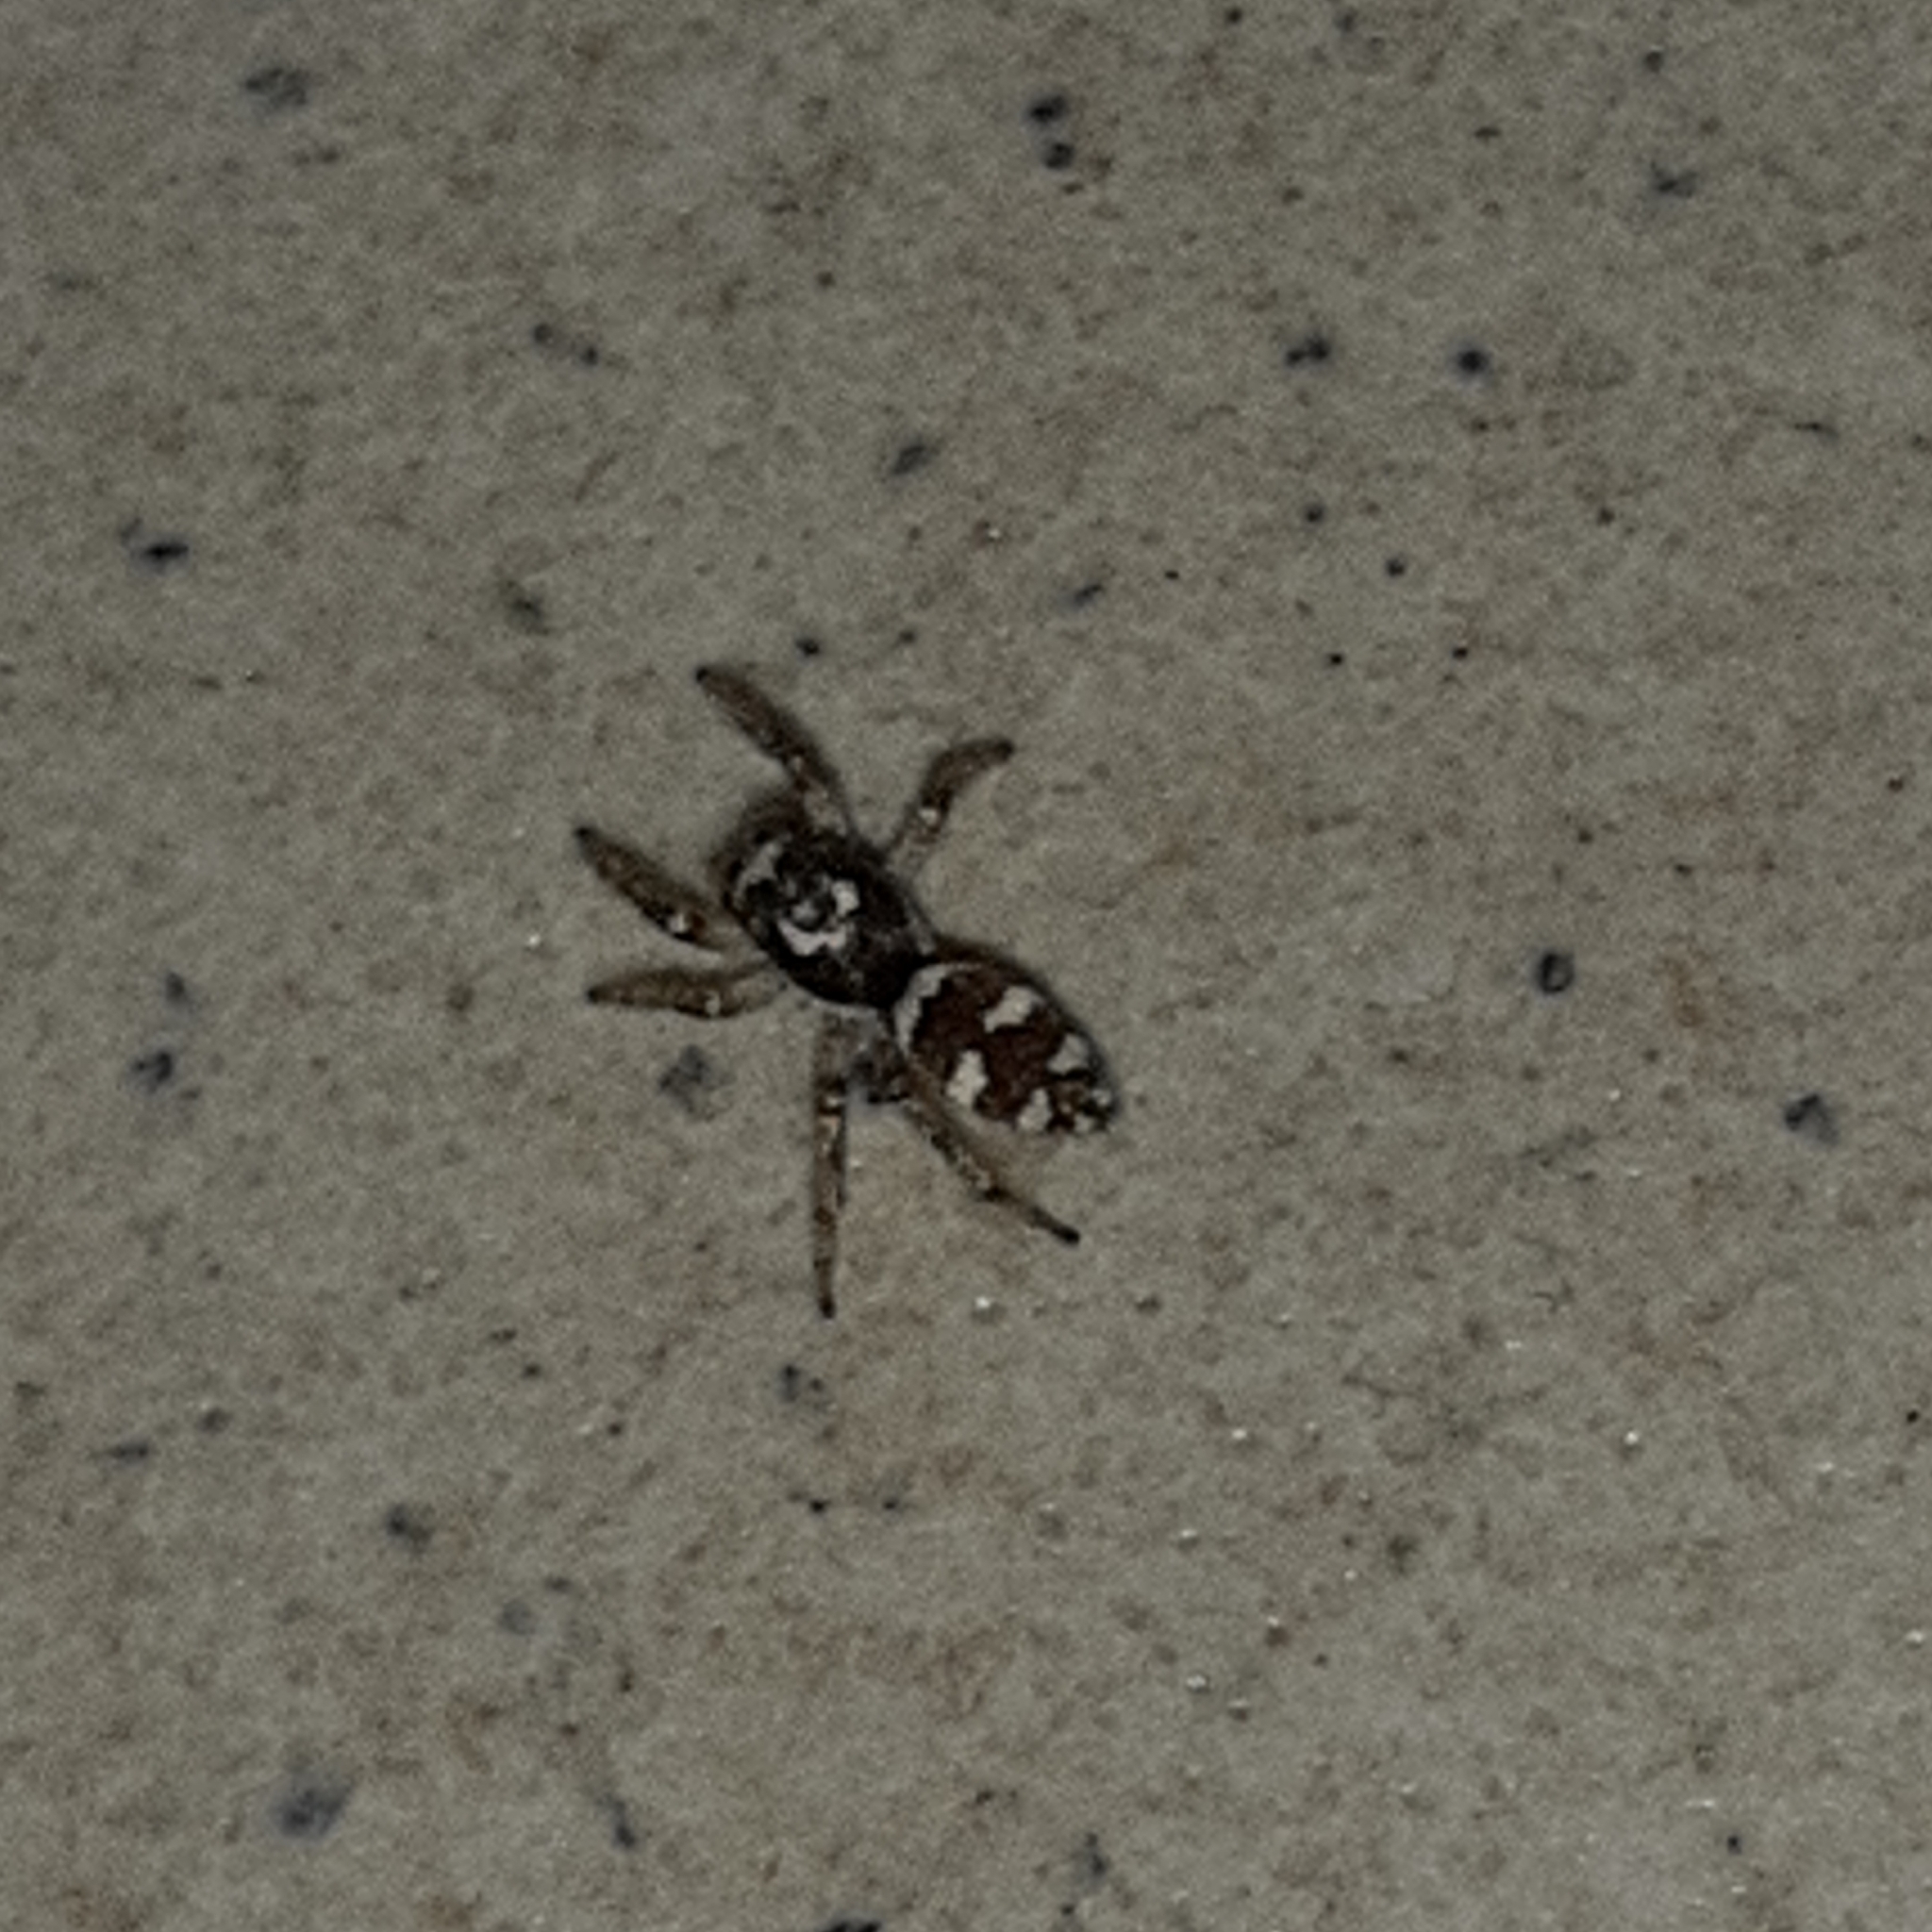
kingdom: Animalia
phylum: Arthropoda
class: Arachnida
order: Araneae
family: Salticidae
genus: Salticus
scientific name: Salticus scenicus
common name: Zebra jumper
